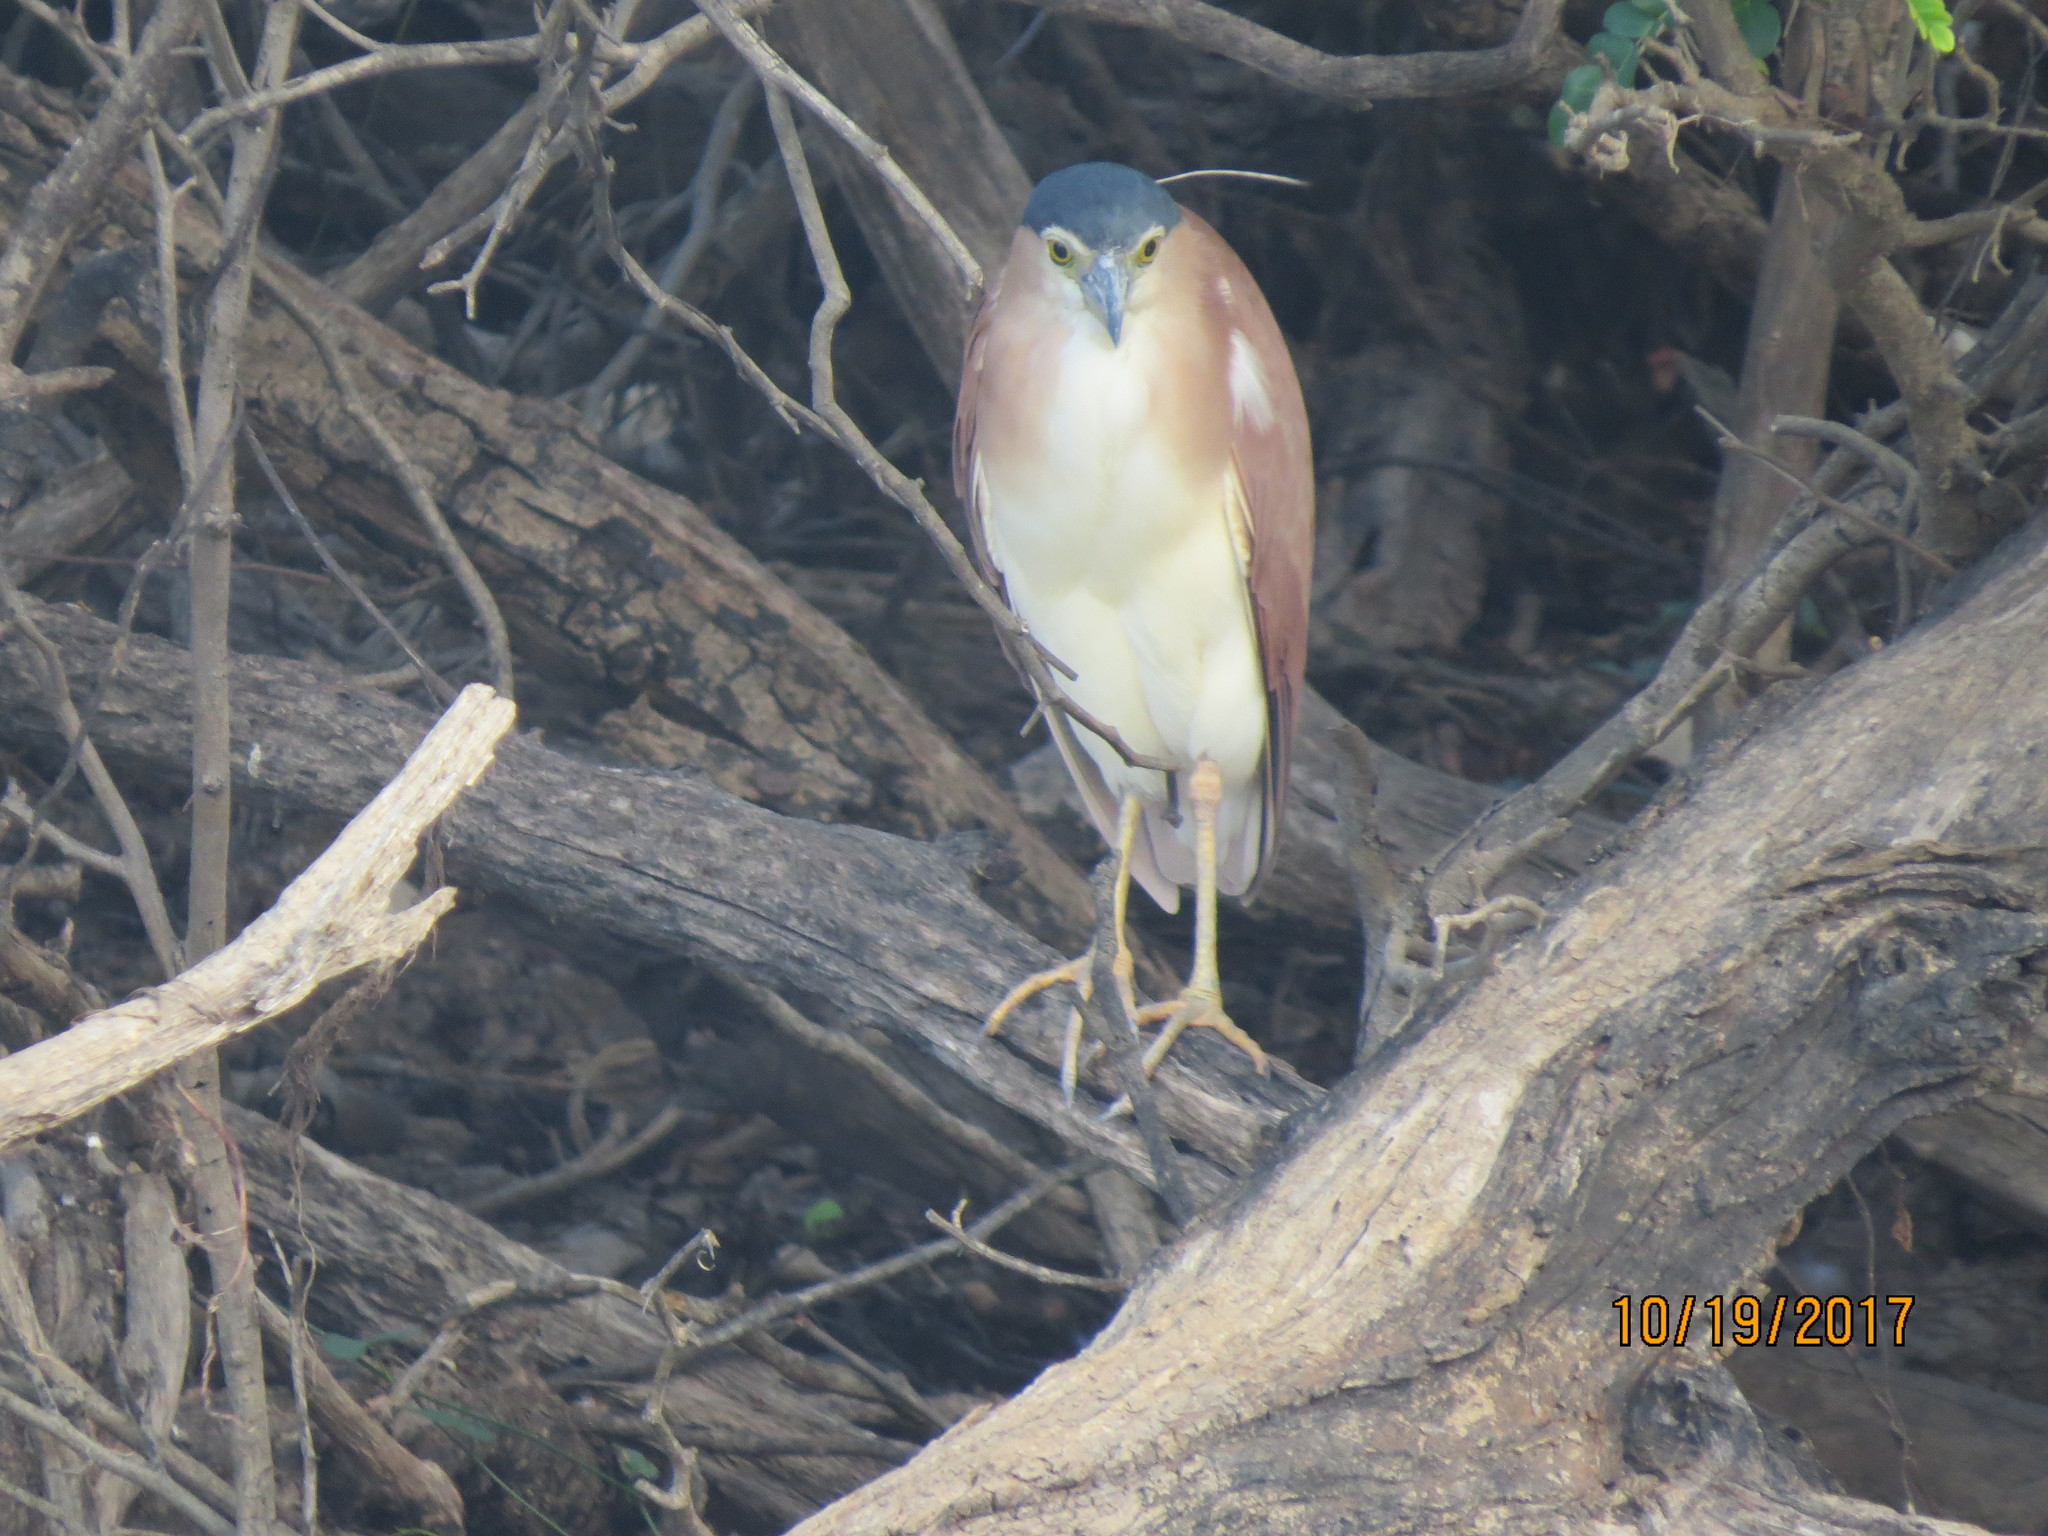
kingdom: Animalia
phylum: Chordata
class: Aves
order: Pelecaniformes
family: Ardeidae
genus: Nycticorax
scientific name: Nycticorax caledonicus
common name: Rufous night-heron
